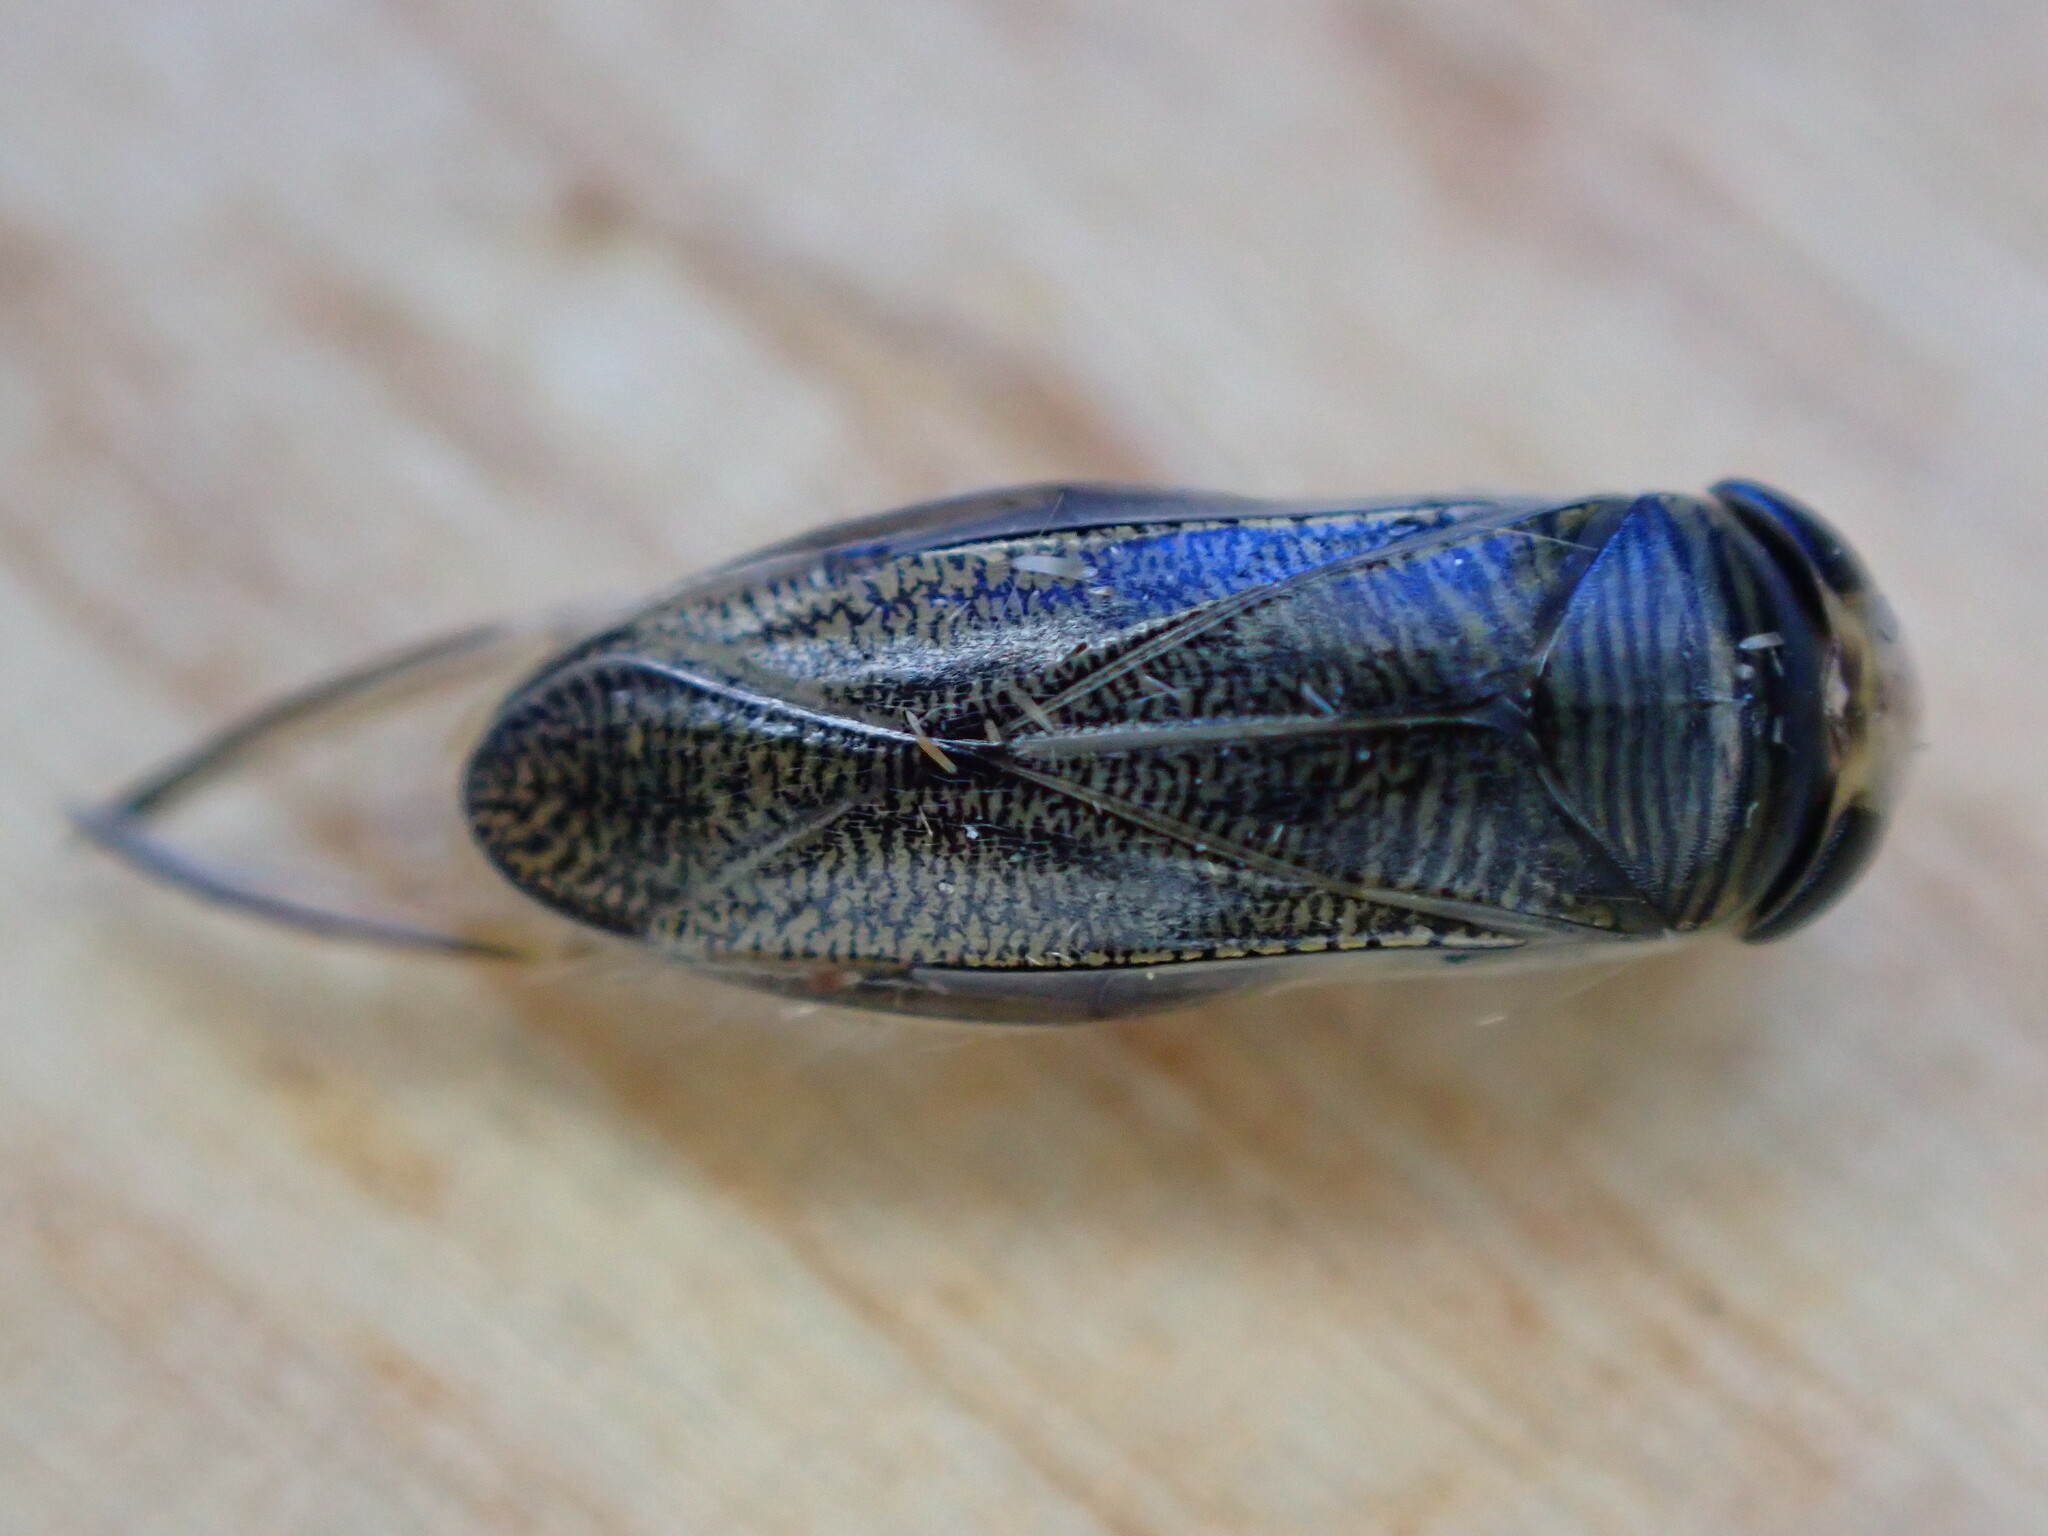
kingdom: Animalia
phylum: Arthropoda
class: Insecta
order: Hemiptera
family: Corixidae
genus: Sigara
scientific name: Sigara
